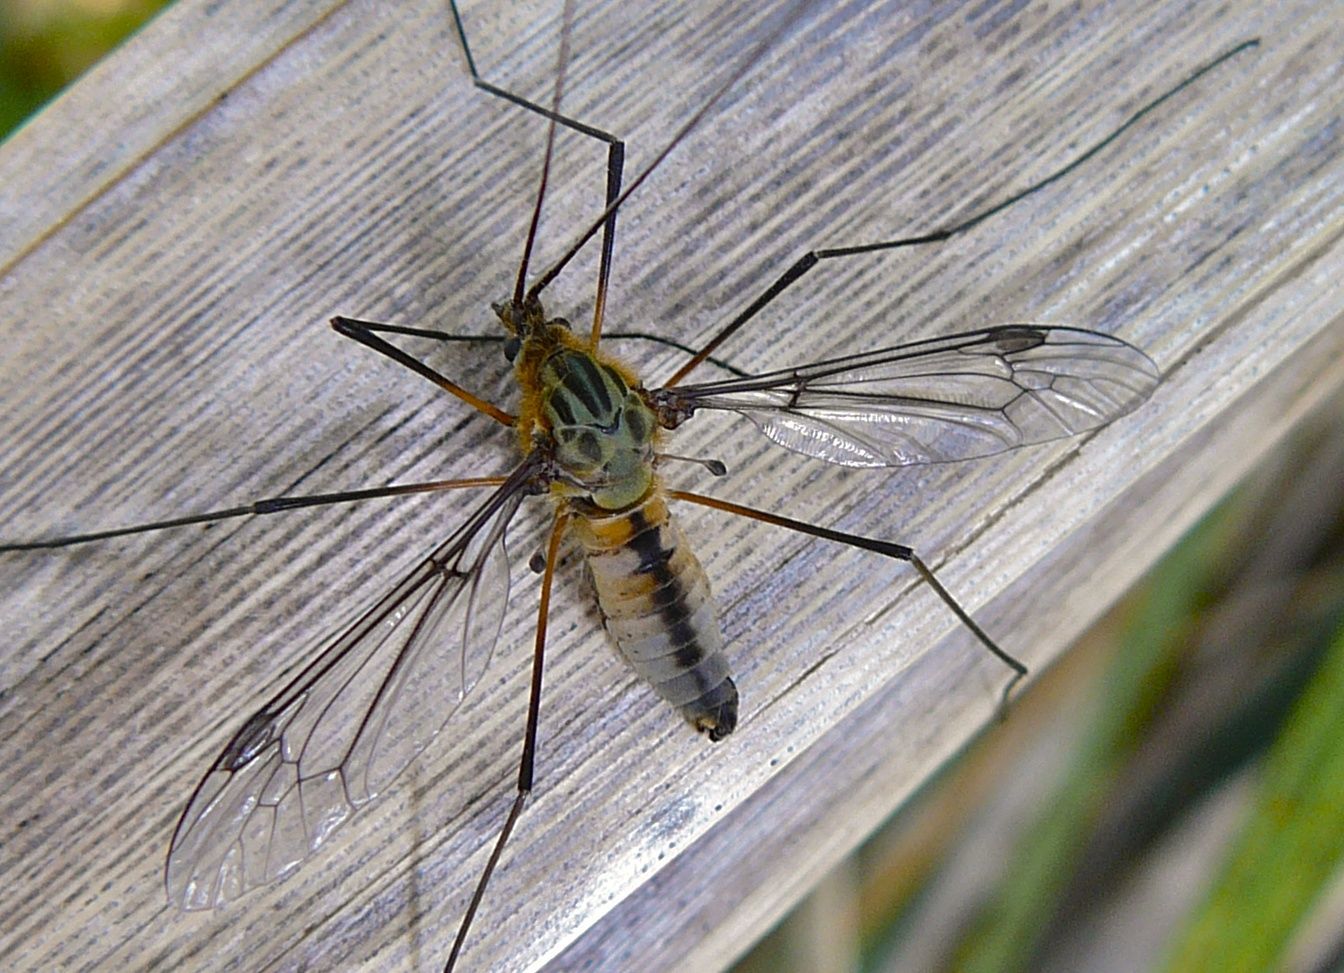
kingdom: Animalia
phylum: Arthropoda
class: Insecta
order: Diptera
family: Tipulidae
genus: Leptotarsus
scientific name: Leptotarsus vulpinus
